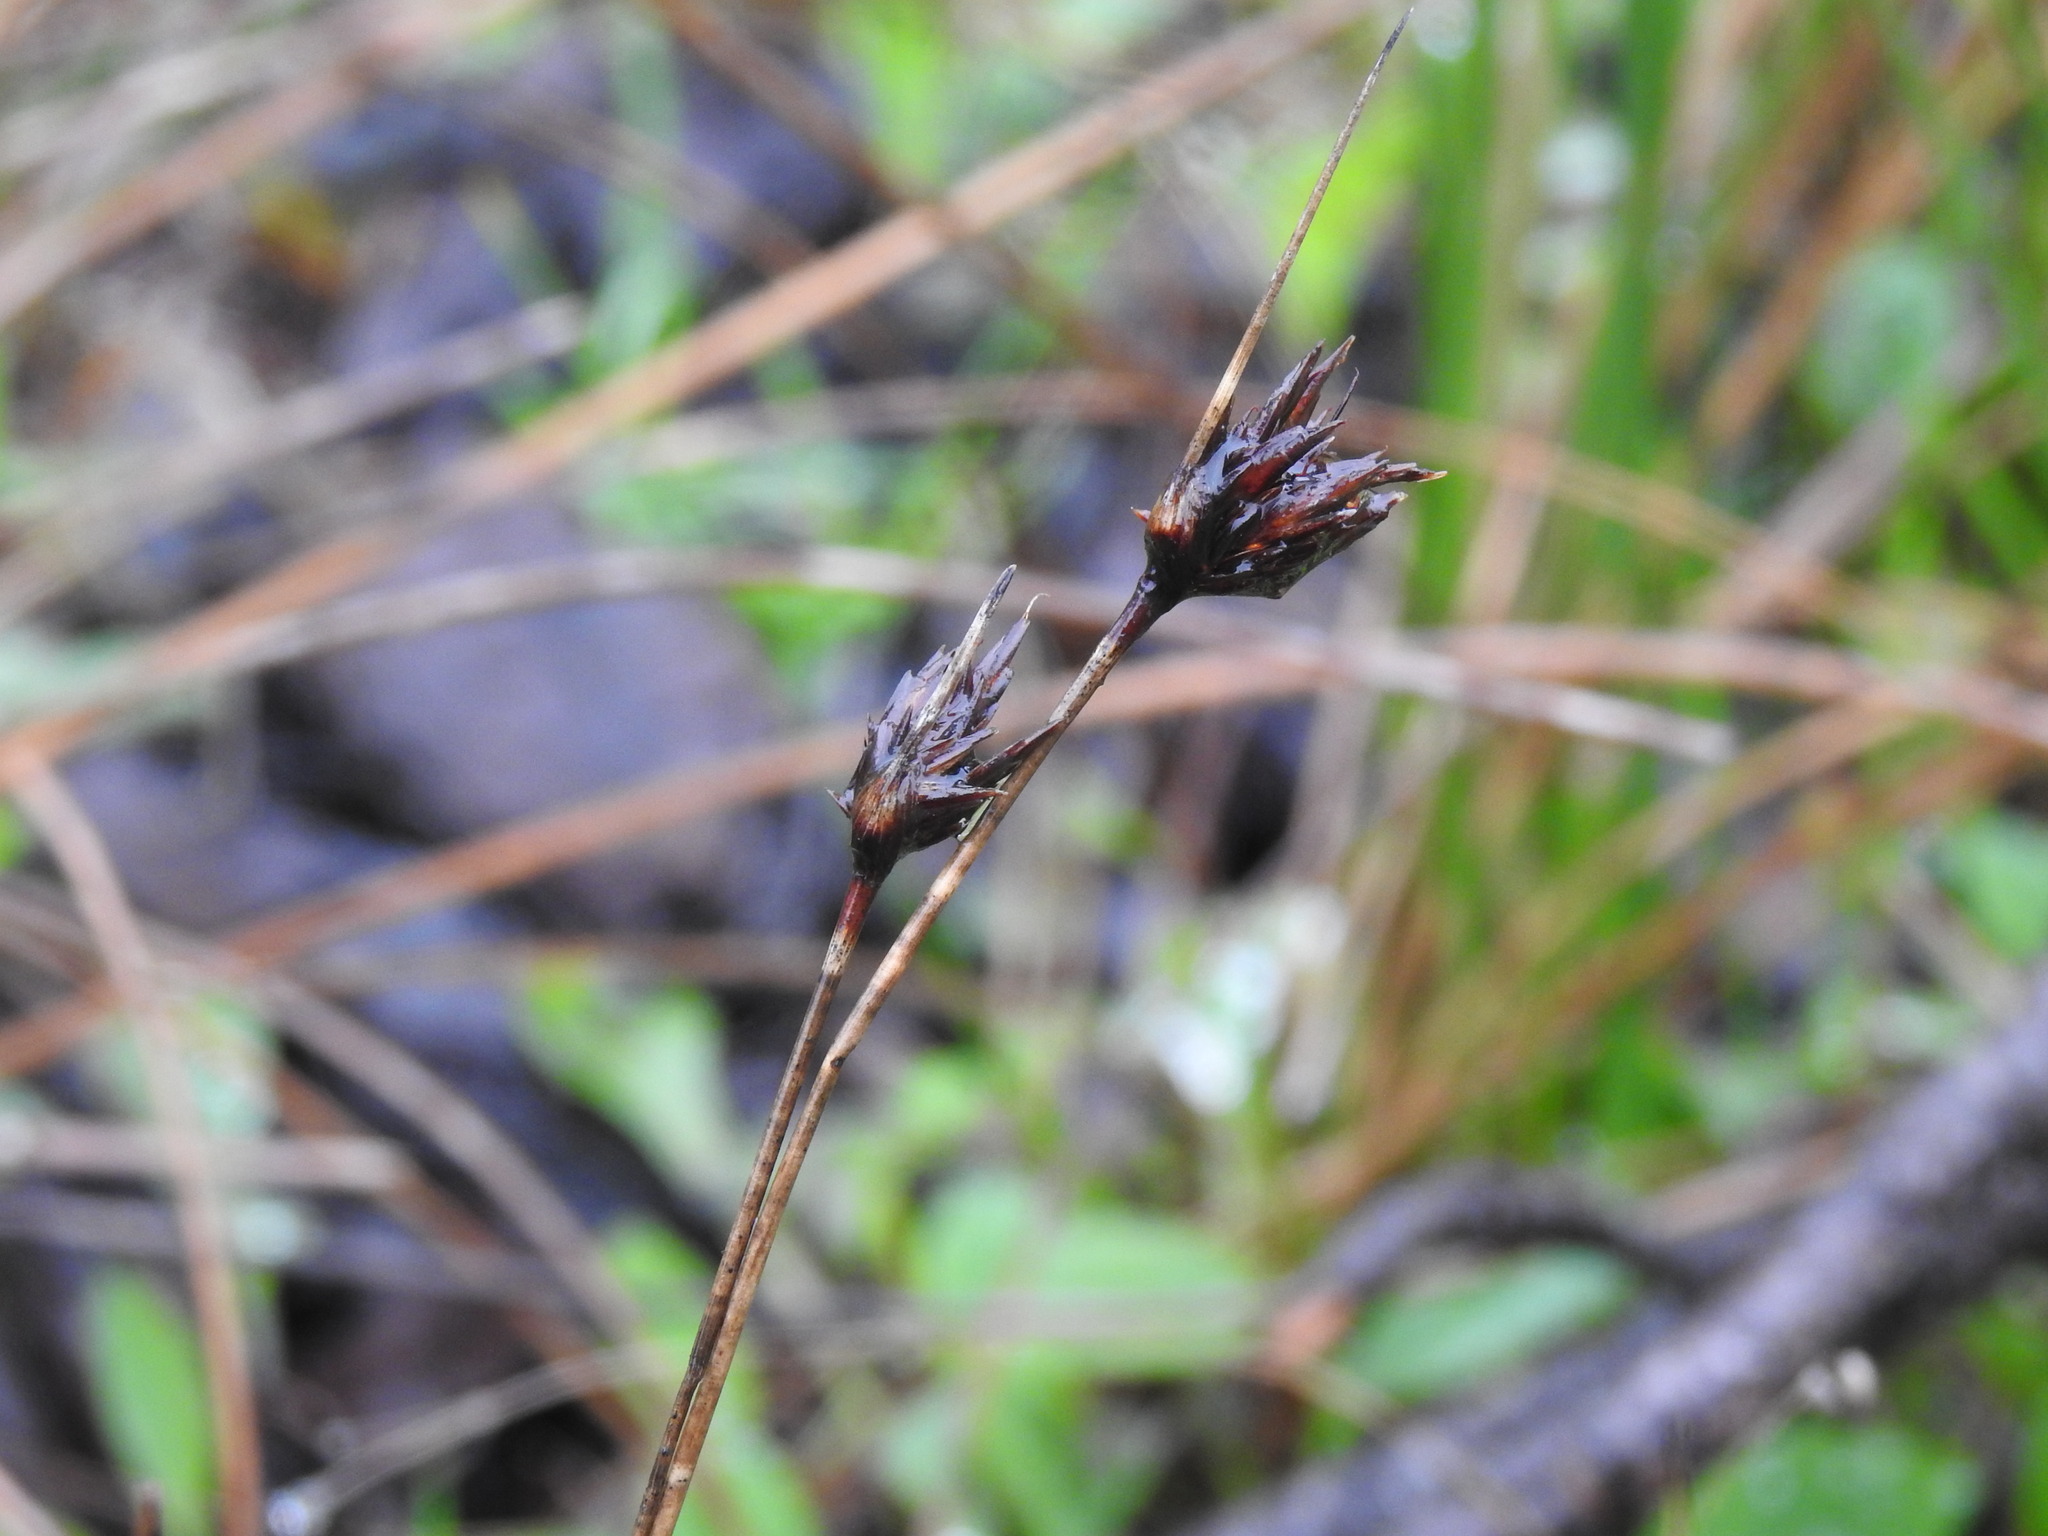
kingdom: Plantae
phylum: Tracheophyta
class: Liliopsida
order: Poales
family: Cyperaceae
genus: Schoenus
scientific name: Schoenus nigricans
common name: Black bog-rush
